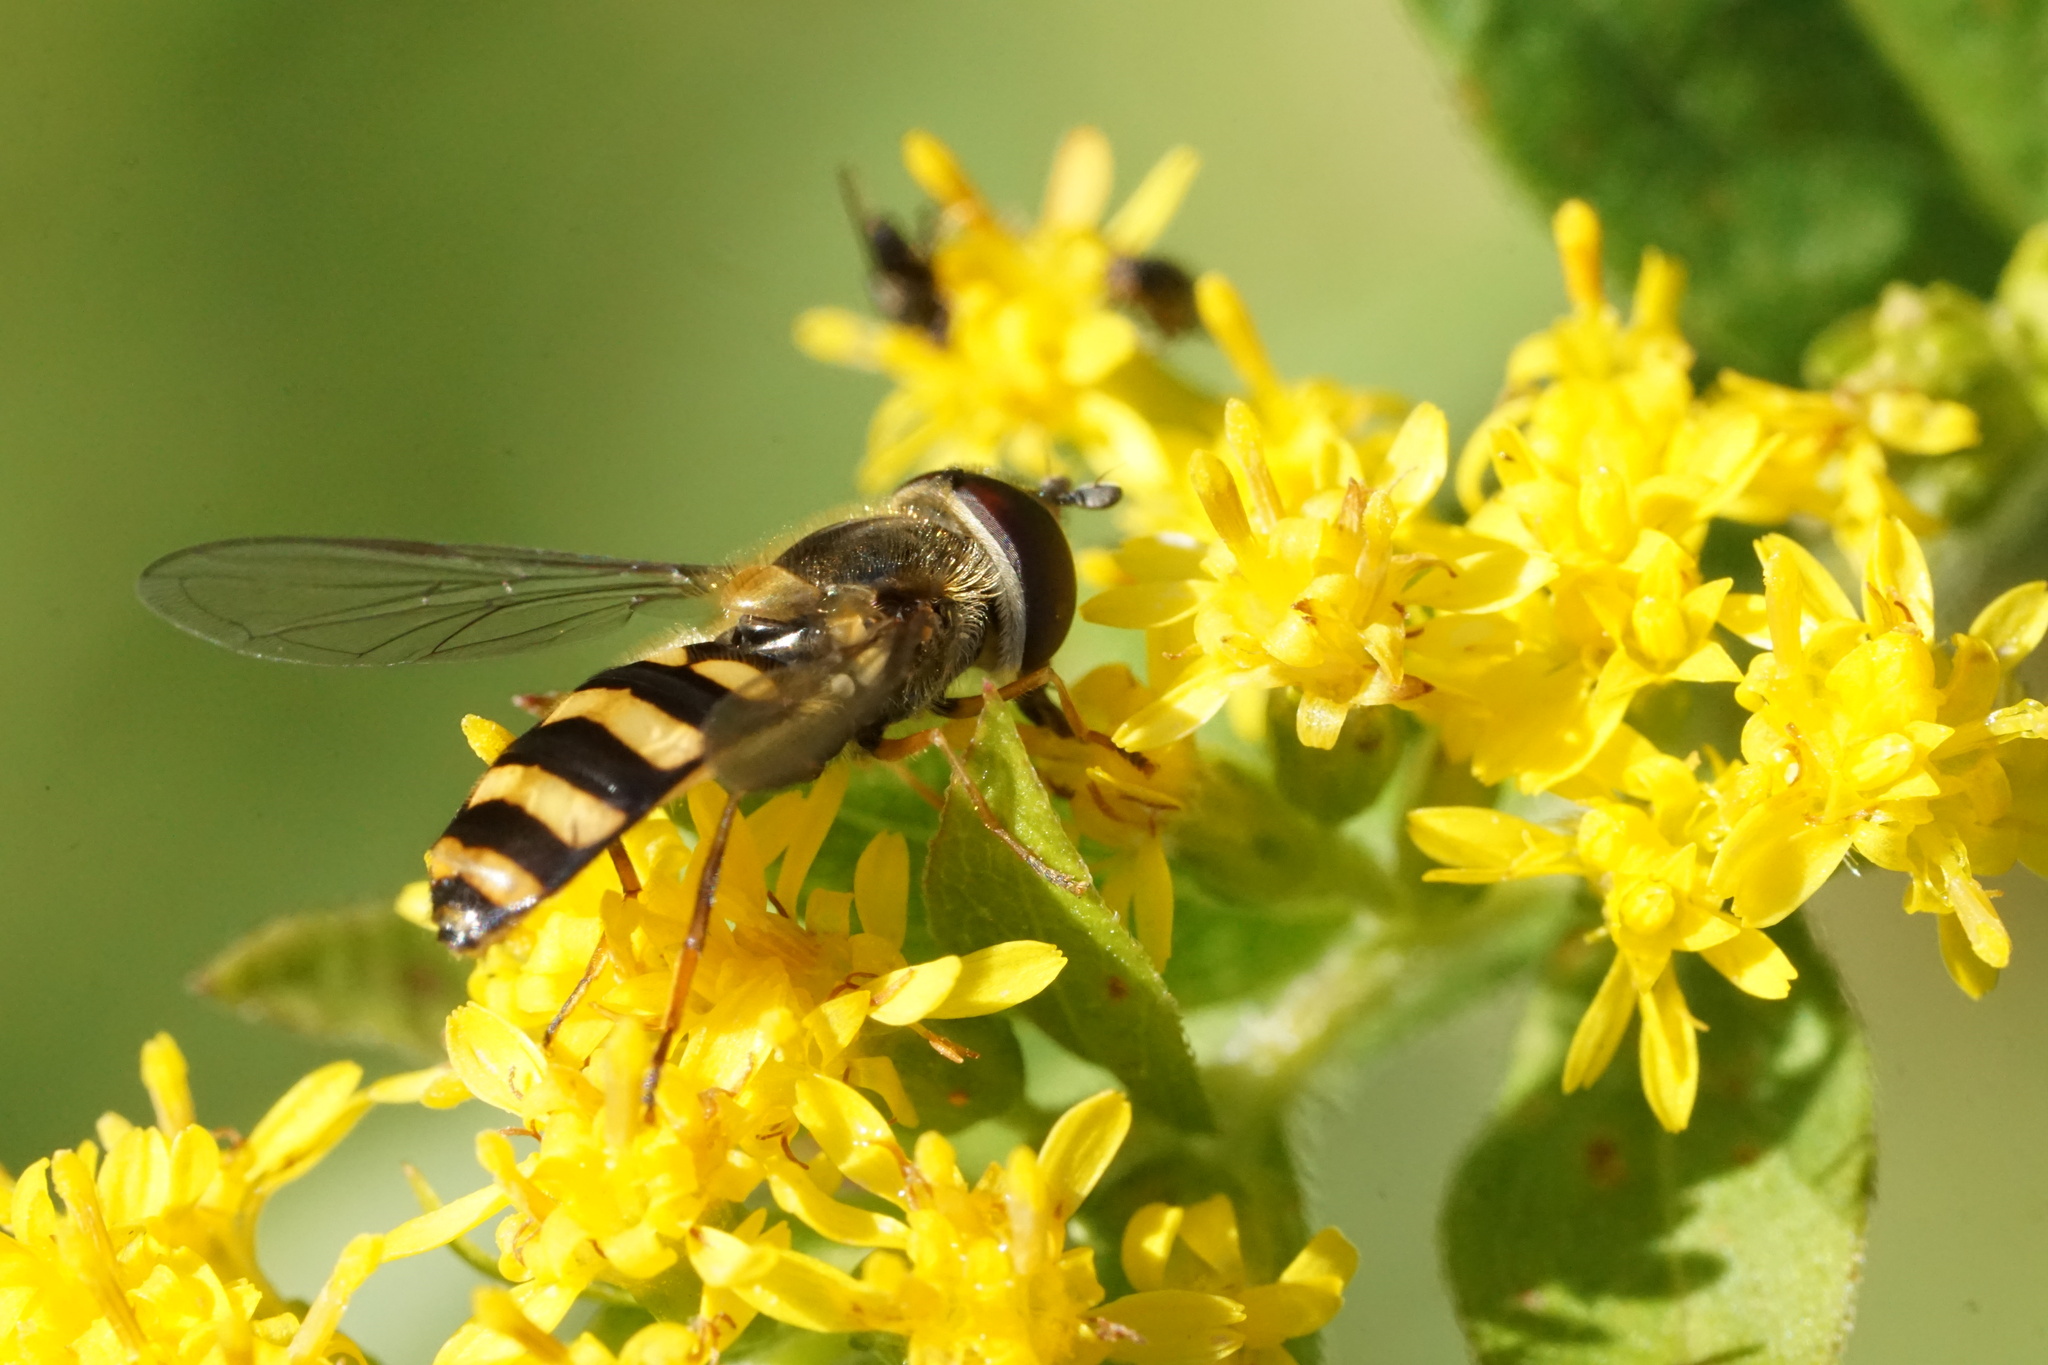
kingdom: Animalia
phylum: Arthropoda
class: Insecta
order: Diptera
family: Syrphidae
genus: Eupeodes
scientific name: Eupeodes
